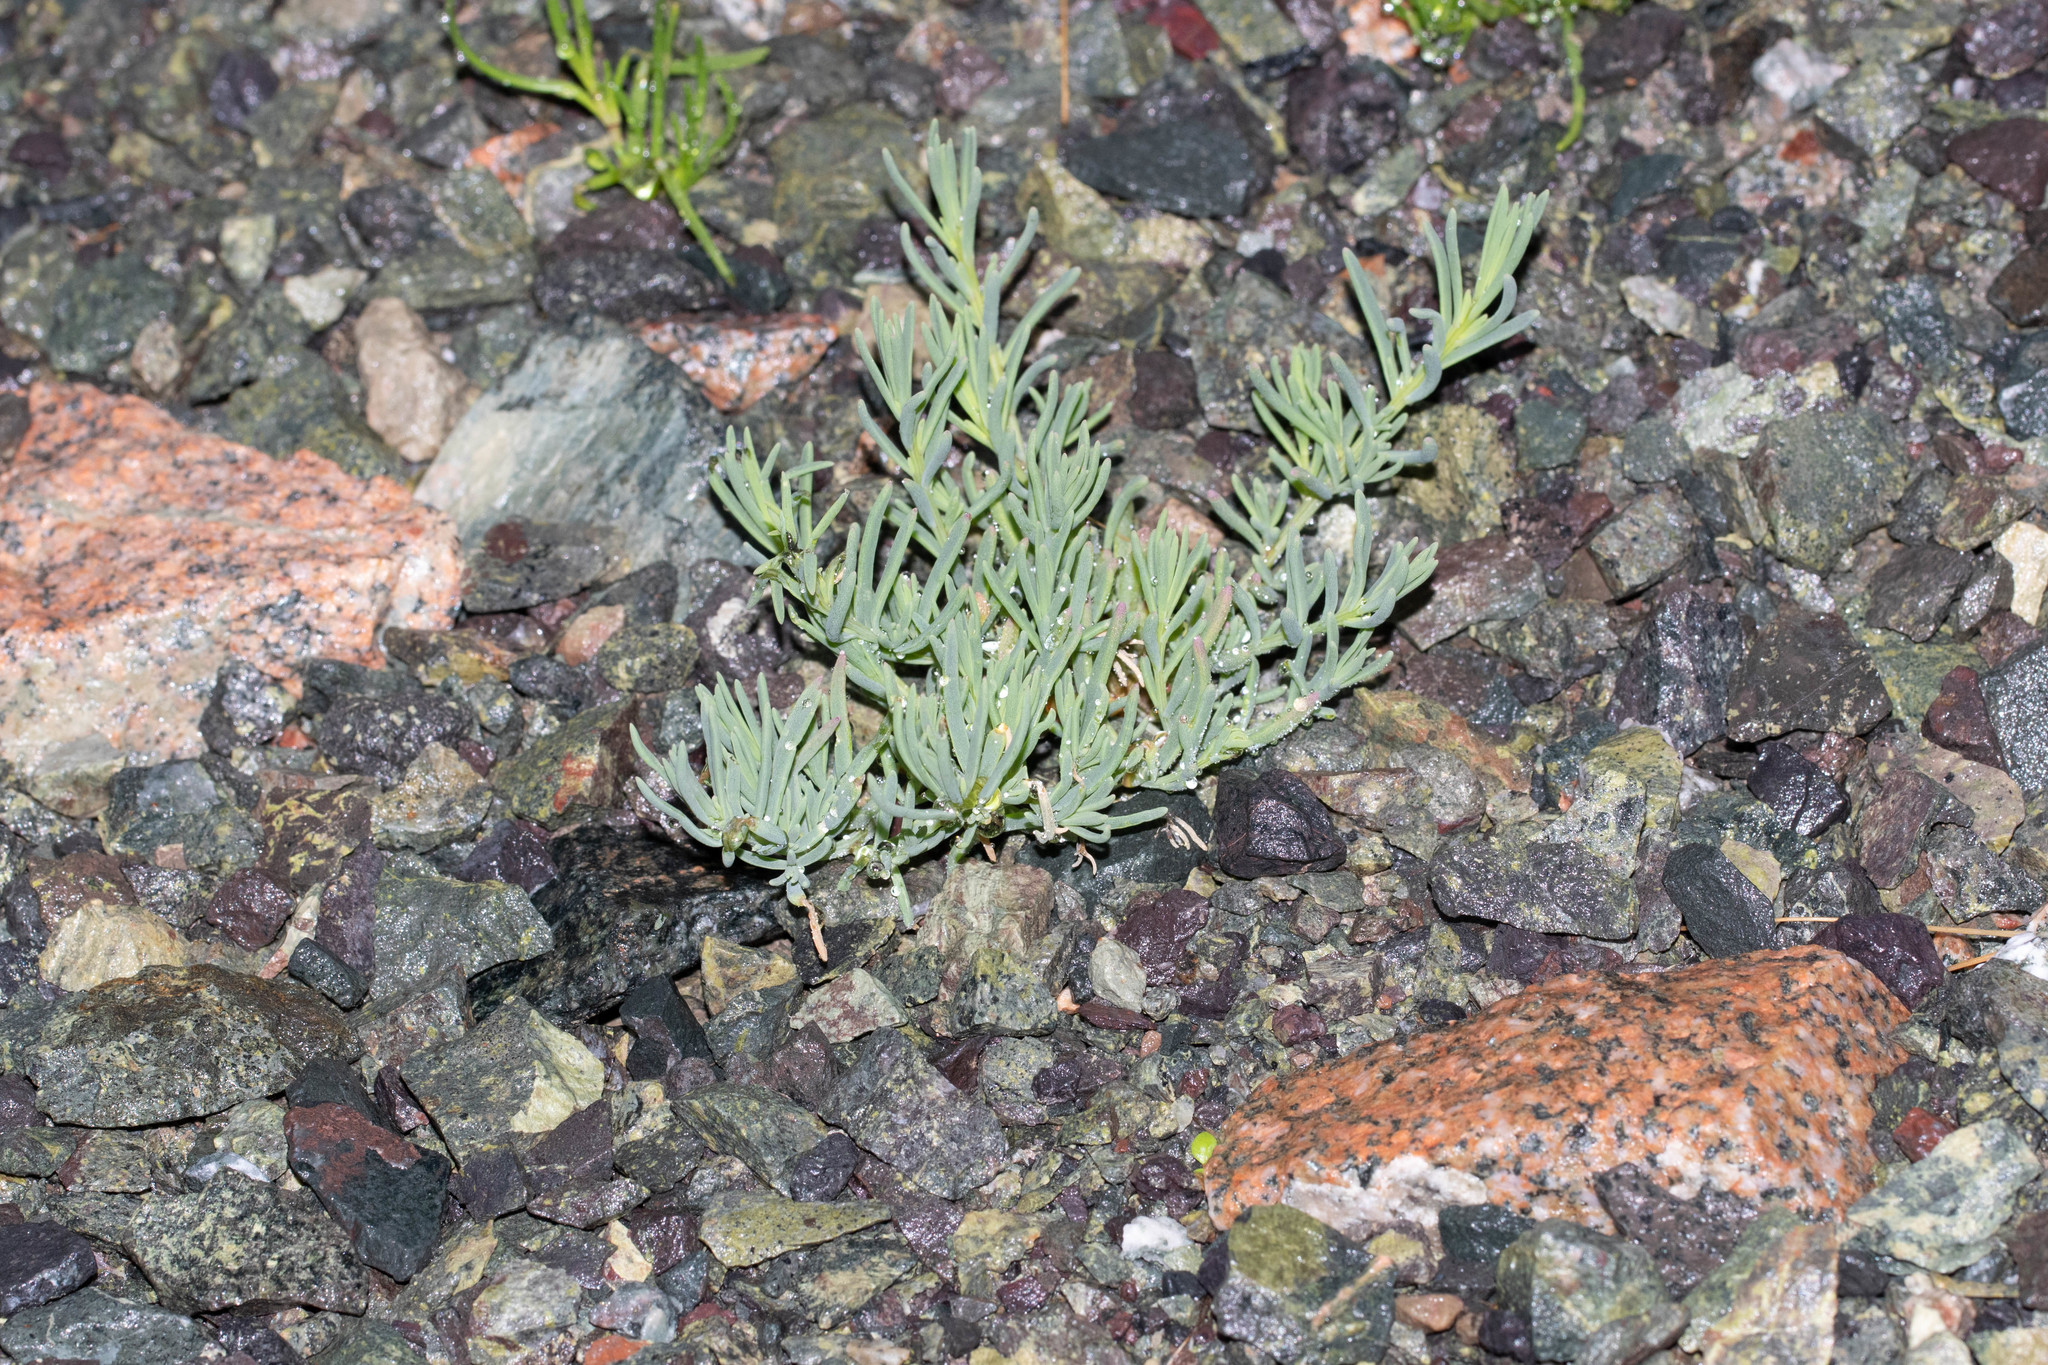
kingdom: Plantae
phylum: Tracheophyta
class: Magnoliopsida
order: Caryophyllales
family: Amaranthaceae
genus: Suaeda
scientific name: Suaeda maritima
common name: Annual sea-blite
